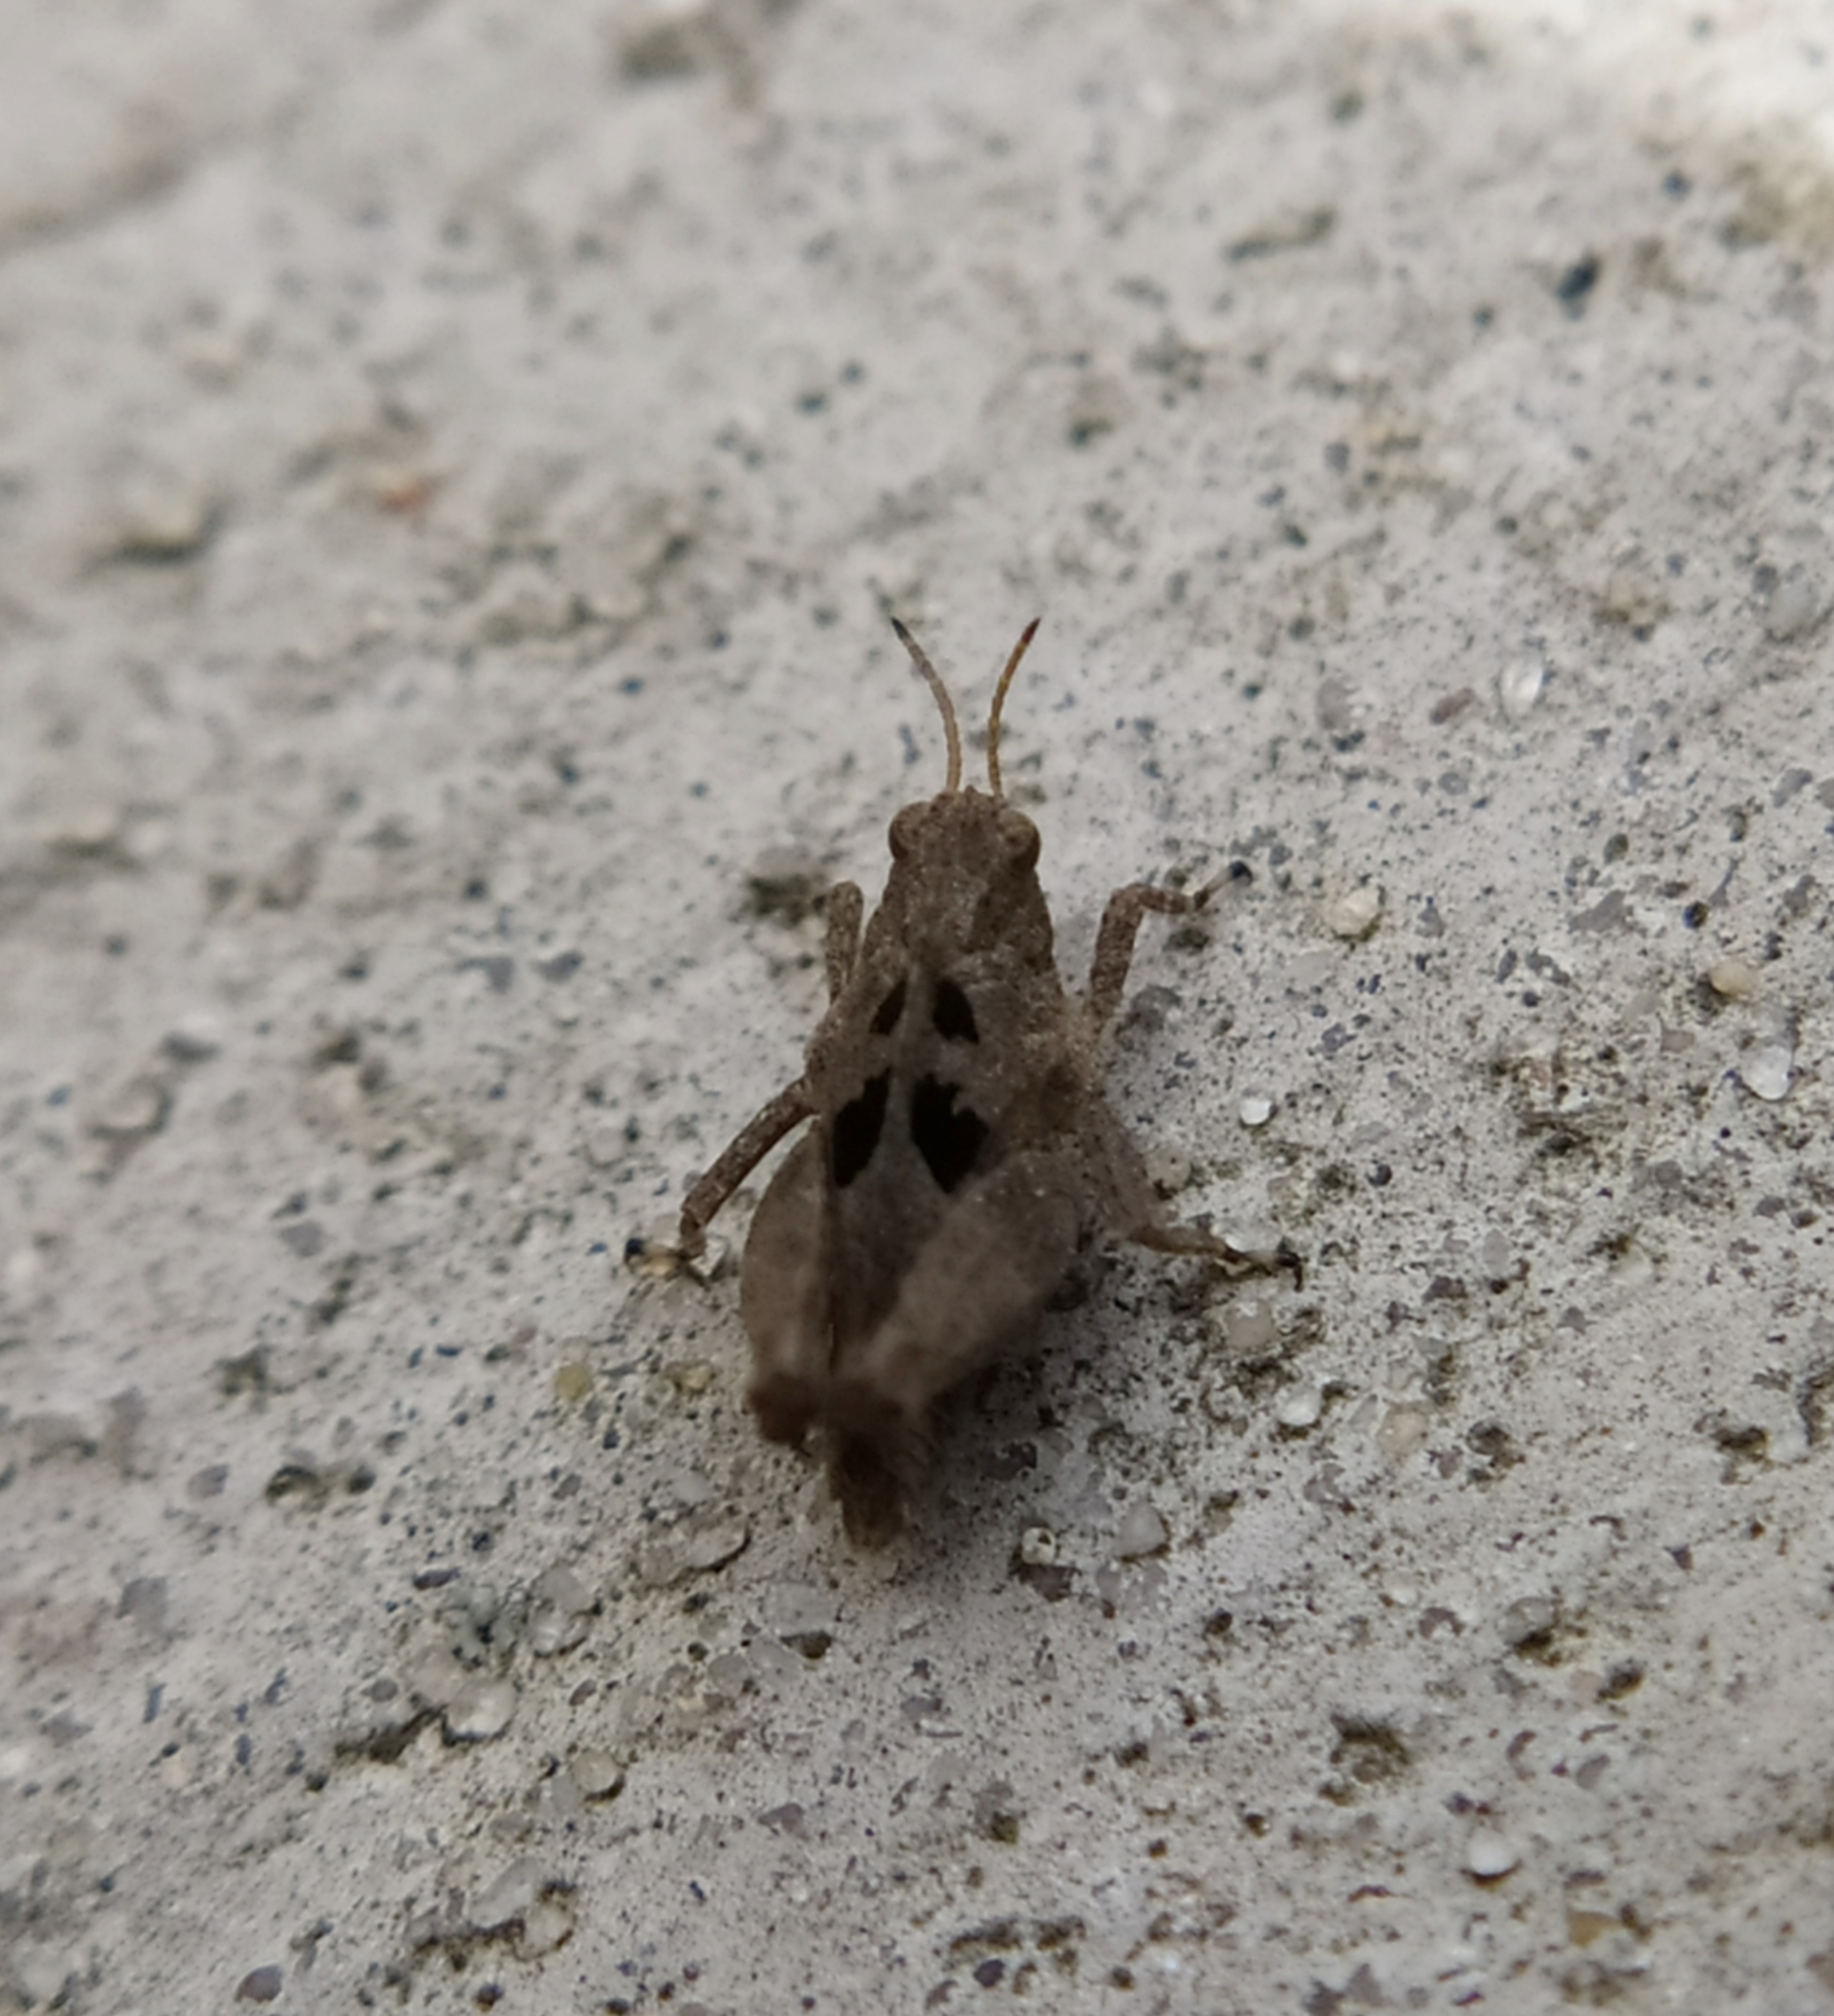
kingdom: Animalia
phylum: Arthropoda
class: Insecta
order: Orthoptera
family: Tetrigidae
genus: Tetrix
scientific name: Tetrix tenuicornis
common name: Long-horned groundhopper
